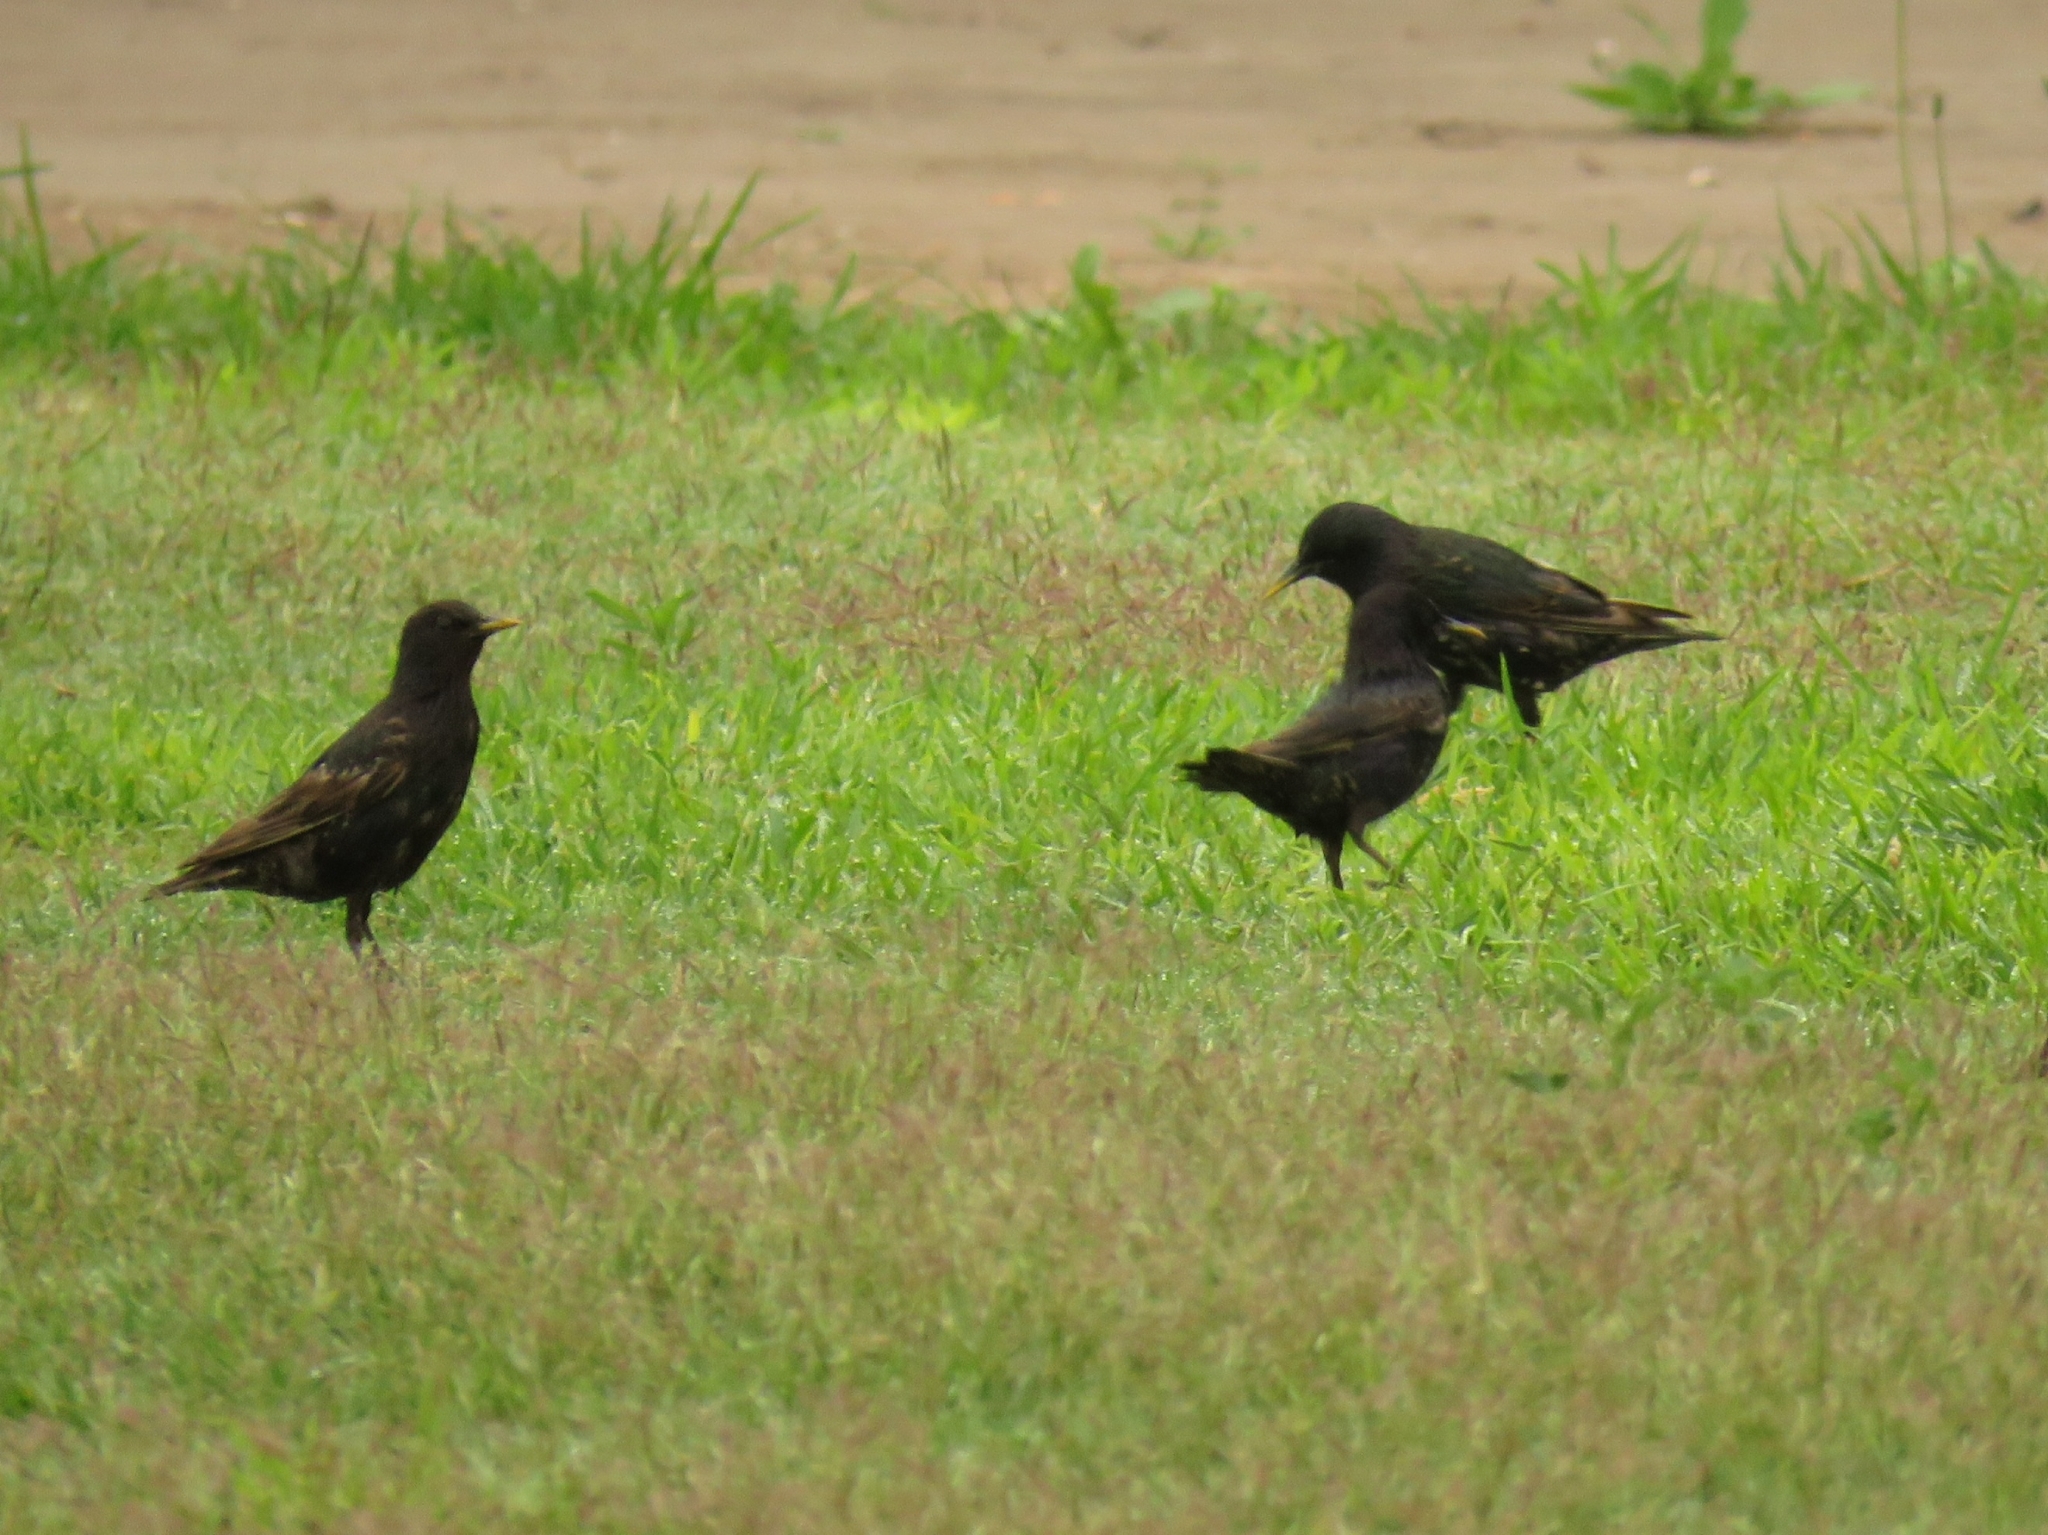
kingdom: Animalia
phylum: Chordata
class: Aves
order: Passeriformes
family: Sturnidae
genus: Sturnus
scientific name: Sturnus vulgaris
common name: Common starling
